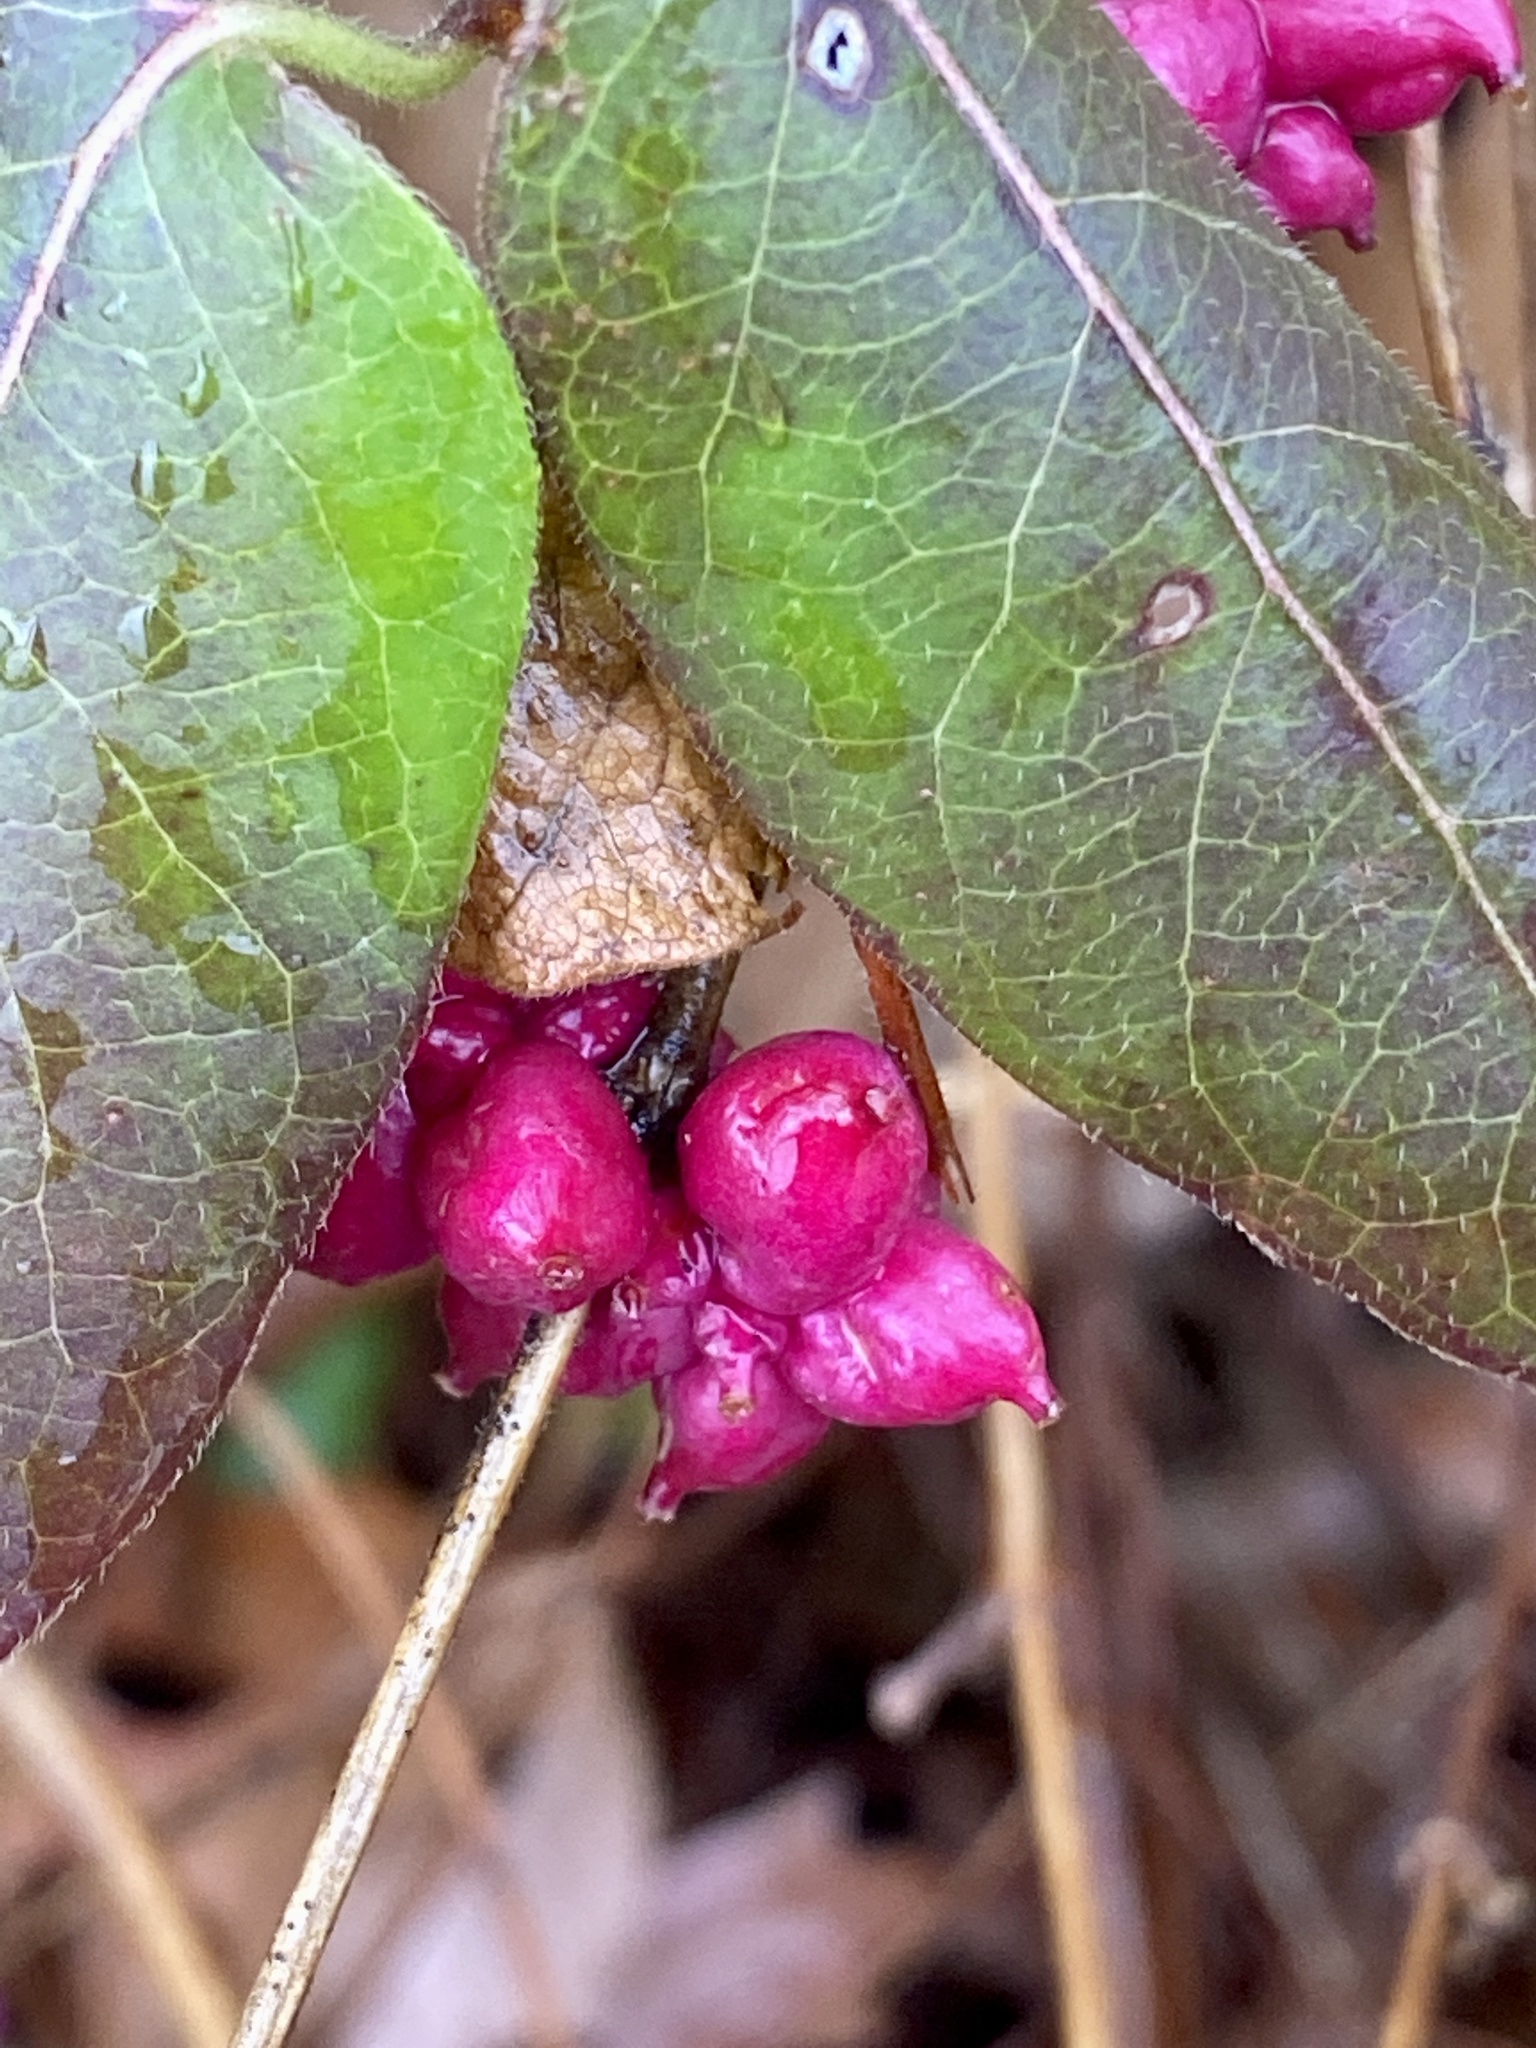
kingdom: Plantae
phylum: Tracheophyta
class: Magnoliopsida
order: Dipsacales
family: Caprifoliaceae
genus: Symphoricarpos
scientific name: Symphoricarpos orbiculatus
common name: Coralberry
